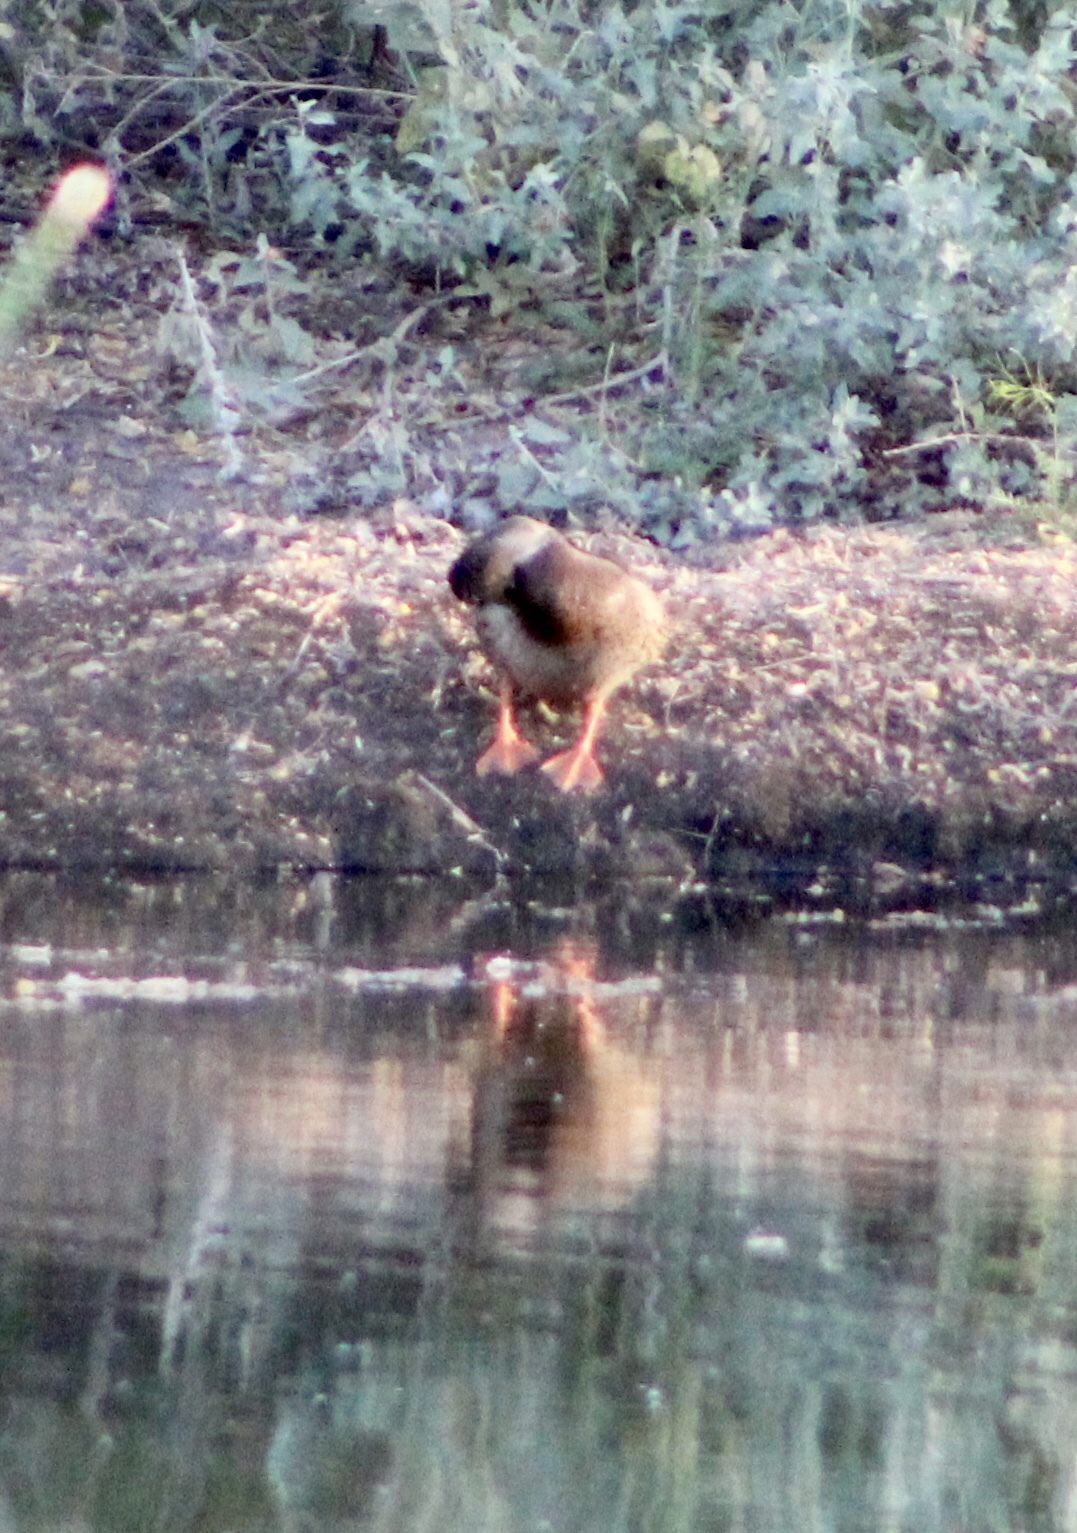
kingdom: Animalia
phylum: Chordata
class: Aves
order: Anseriformes
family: Anatidae
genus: Anas
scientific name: Anas platyrhynchos
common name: Mallard
